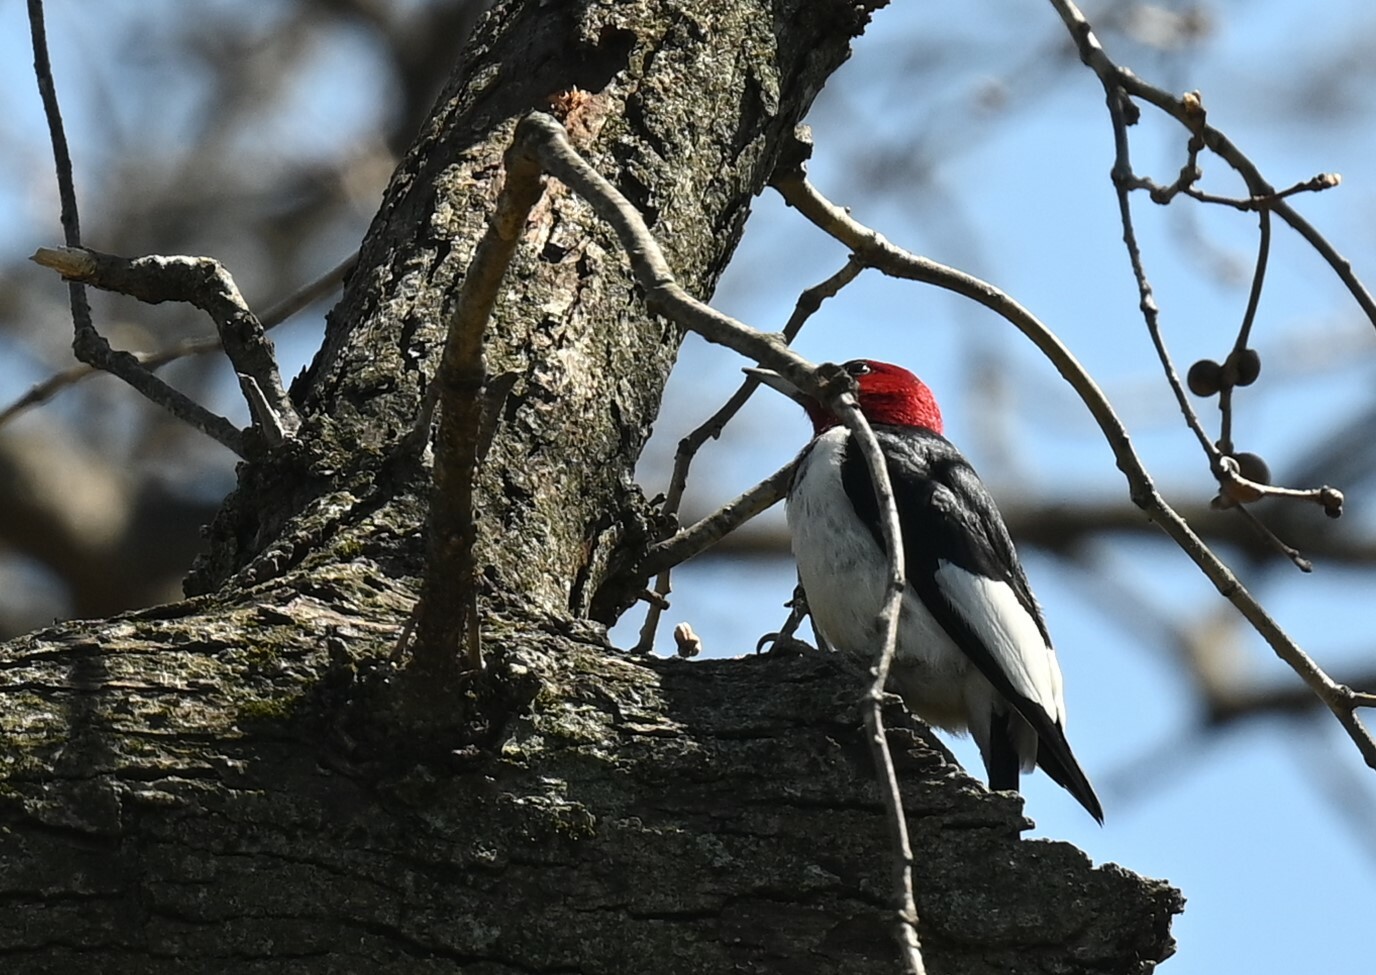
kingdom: Animalia
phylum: Chordata
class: Aves
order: Piciformes
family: Picidae
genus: Melanerpes
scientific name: Melanerpes erythrocephalus
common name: Red-headed woodpecker
